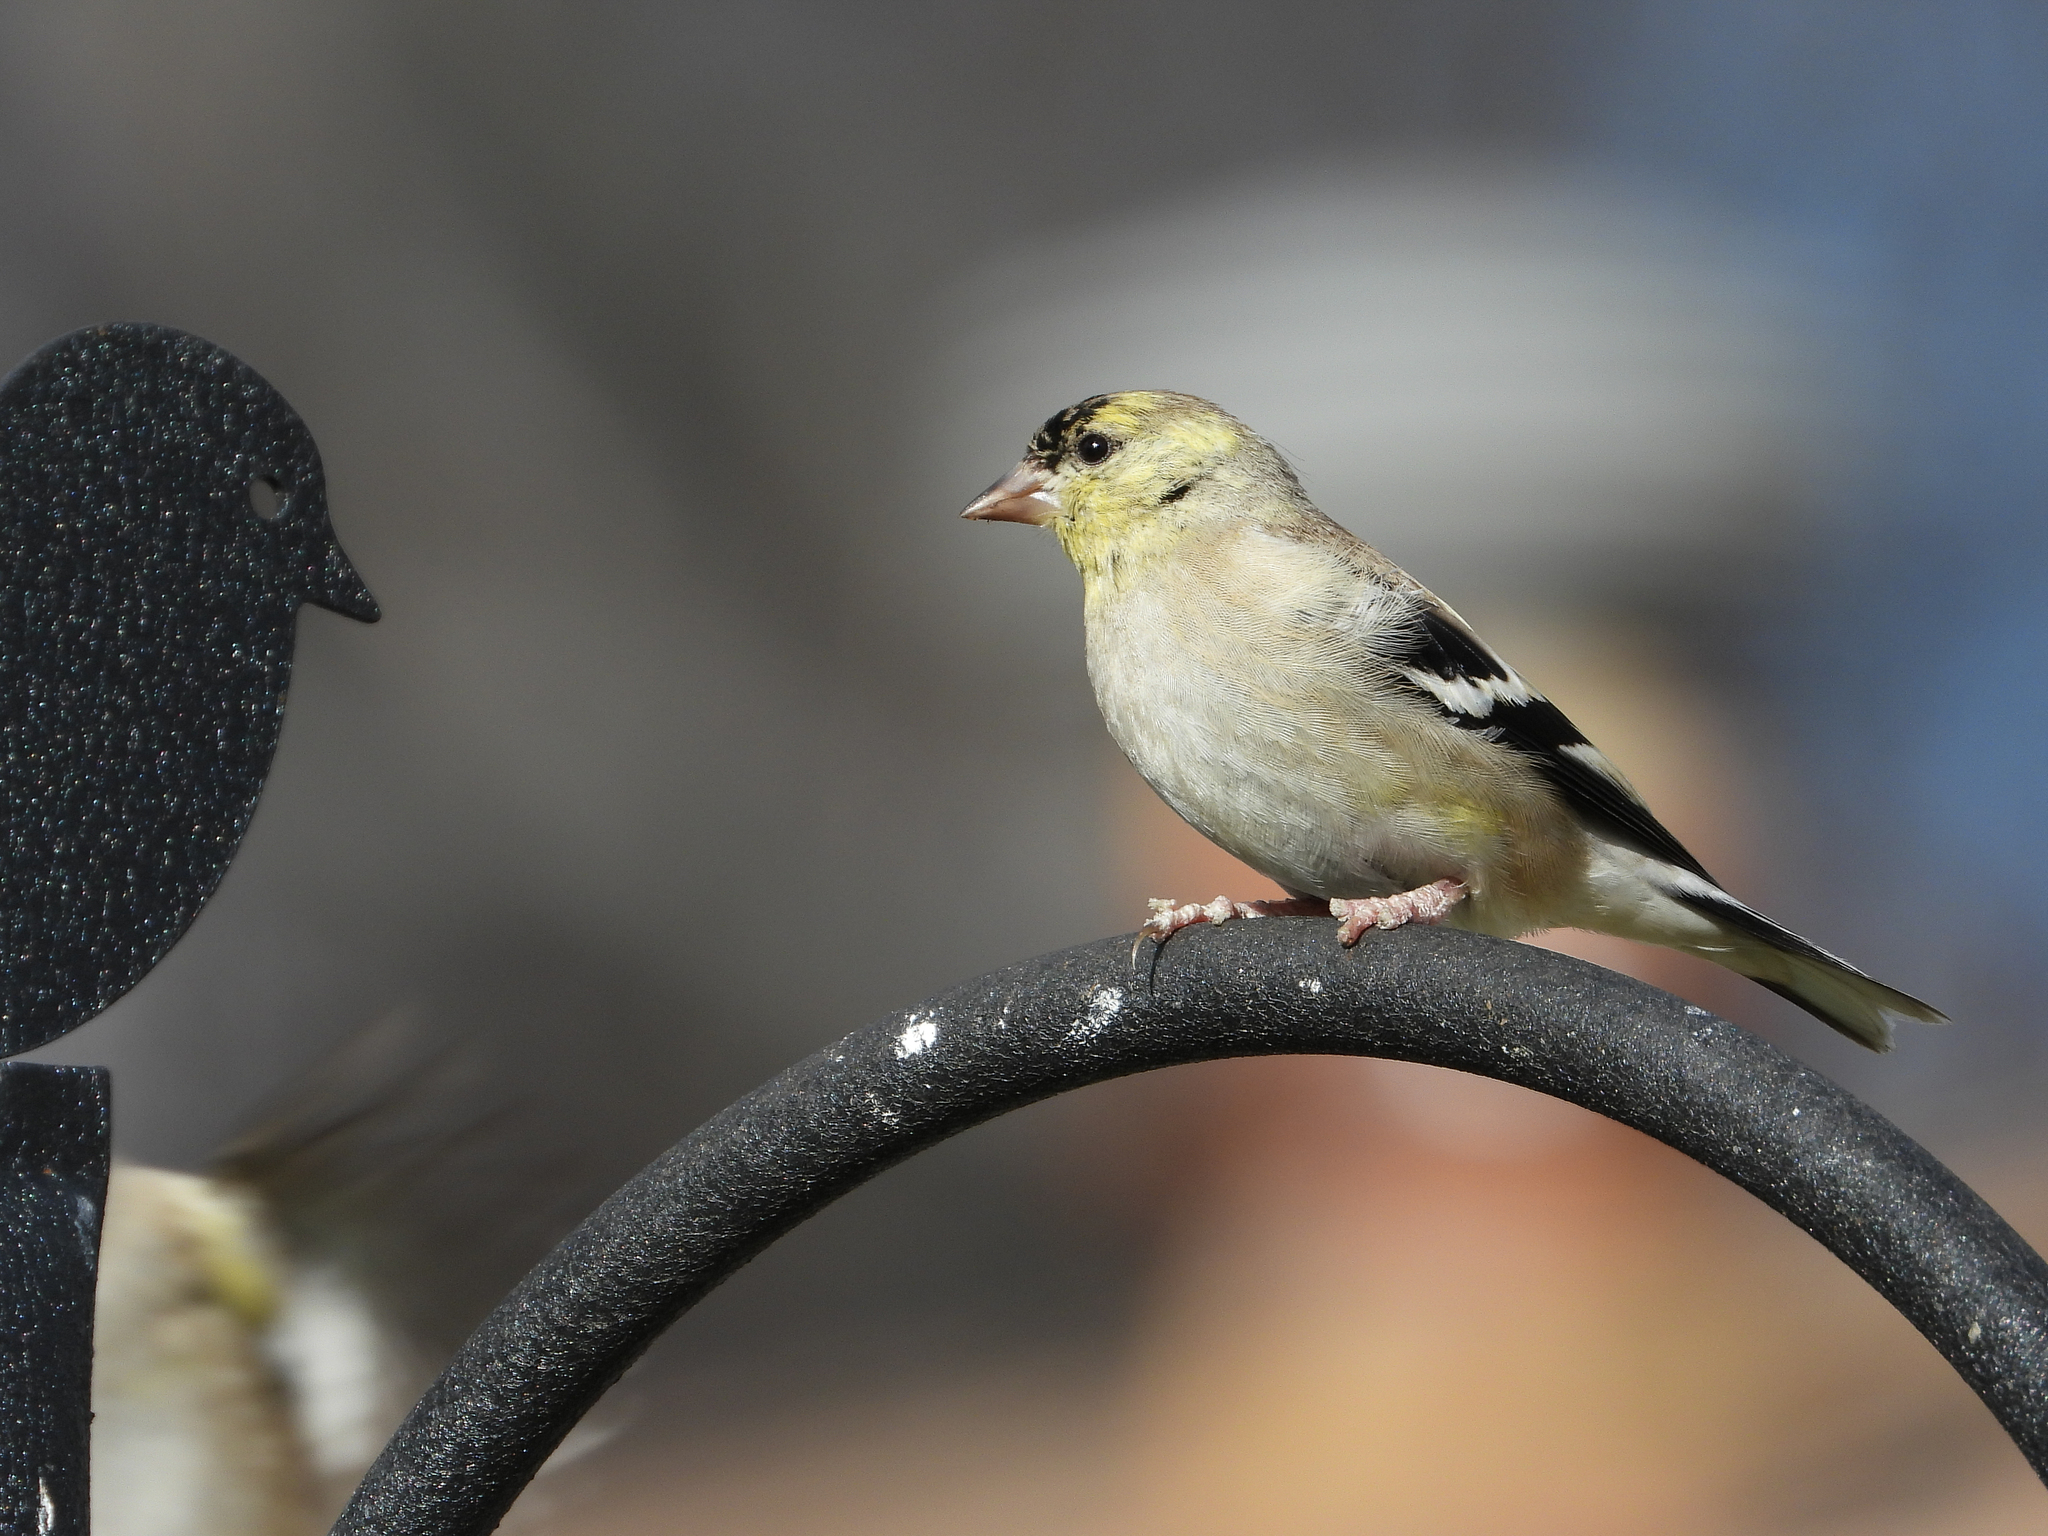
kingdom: Animalia
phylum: Chordata
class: Aves
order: Passeriformes
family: Fringillidae
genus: Spinus
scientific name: Spinus tristis
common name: American goldfinch
